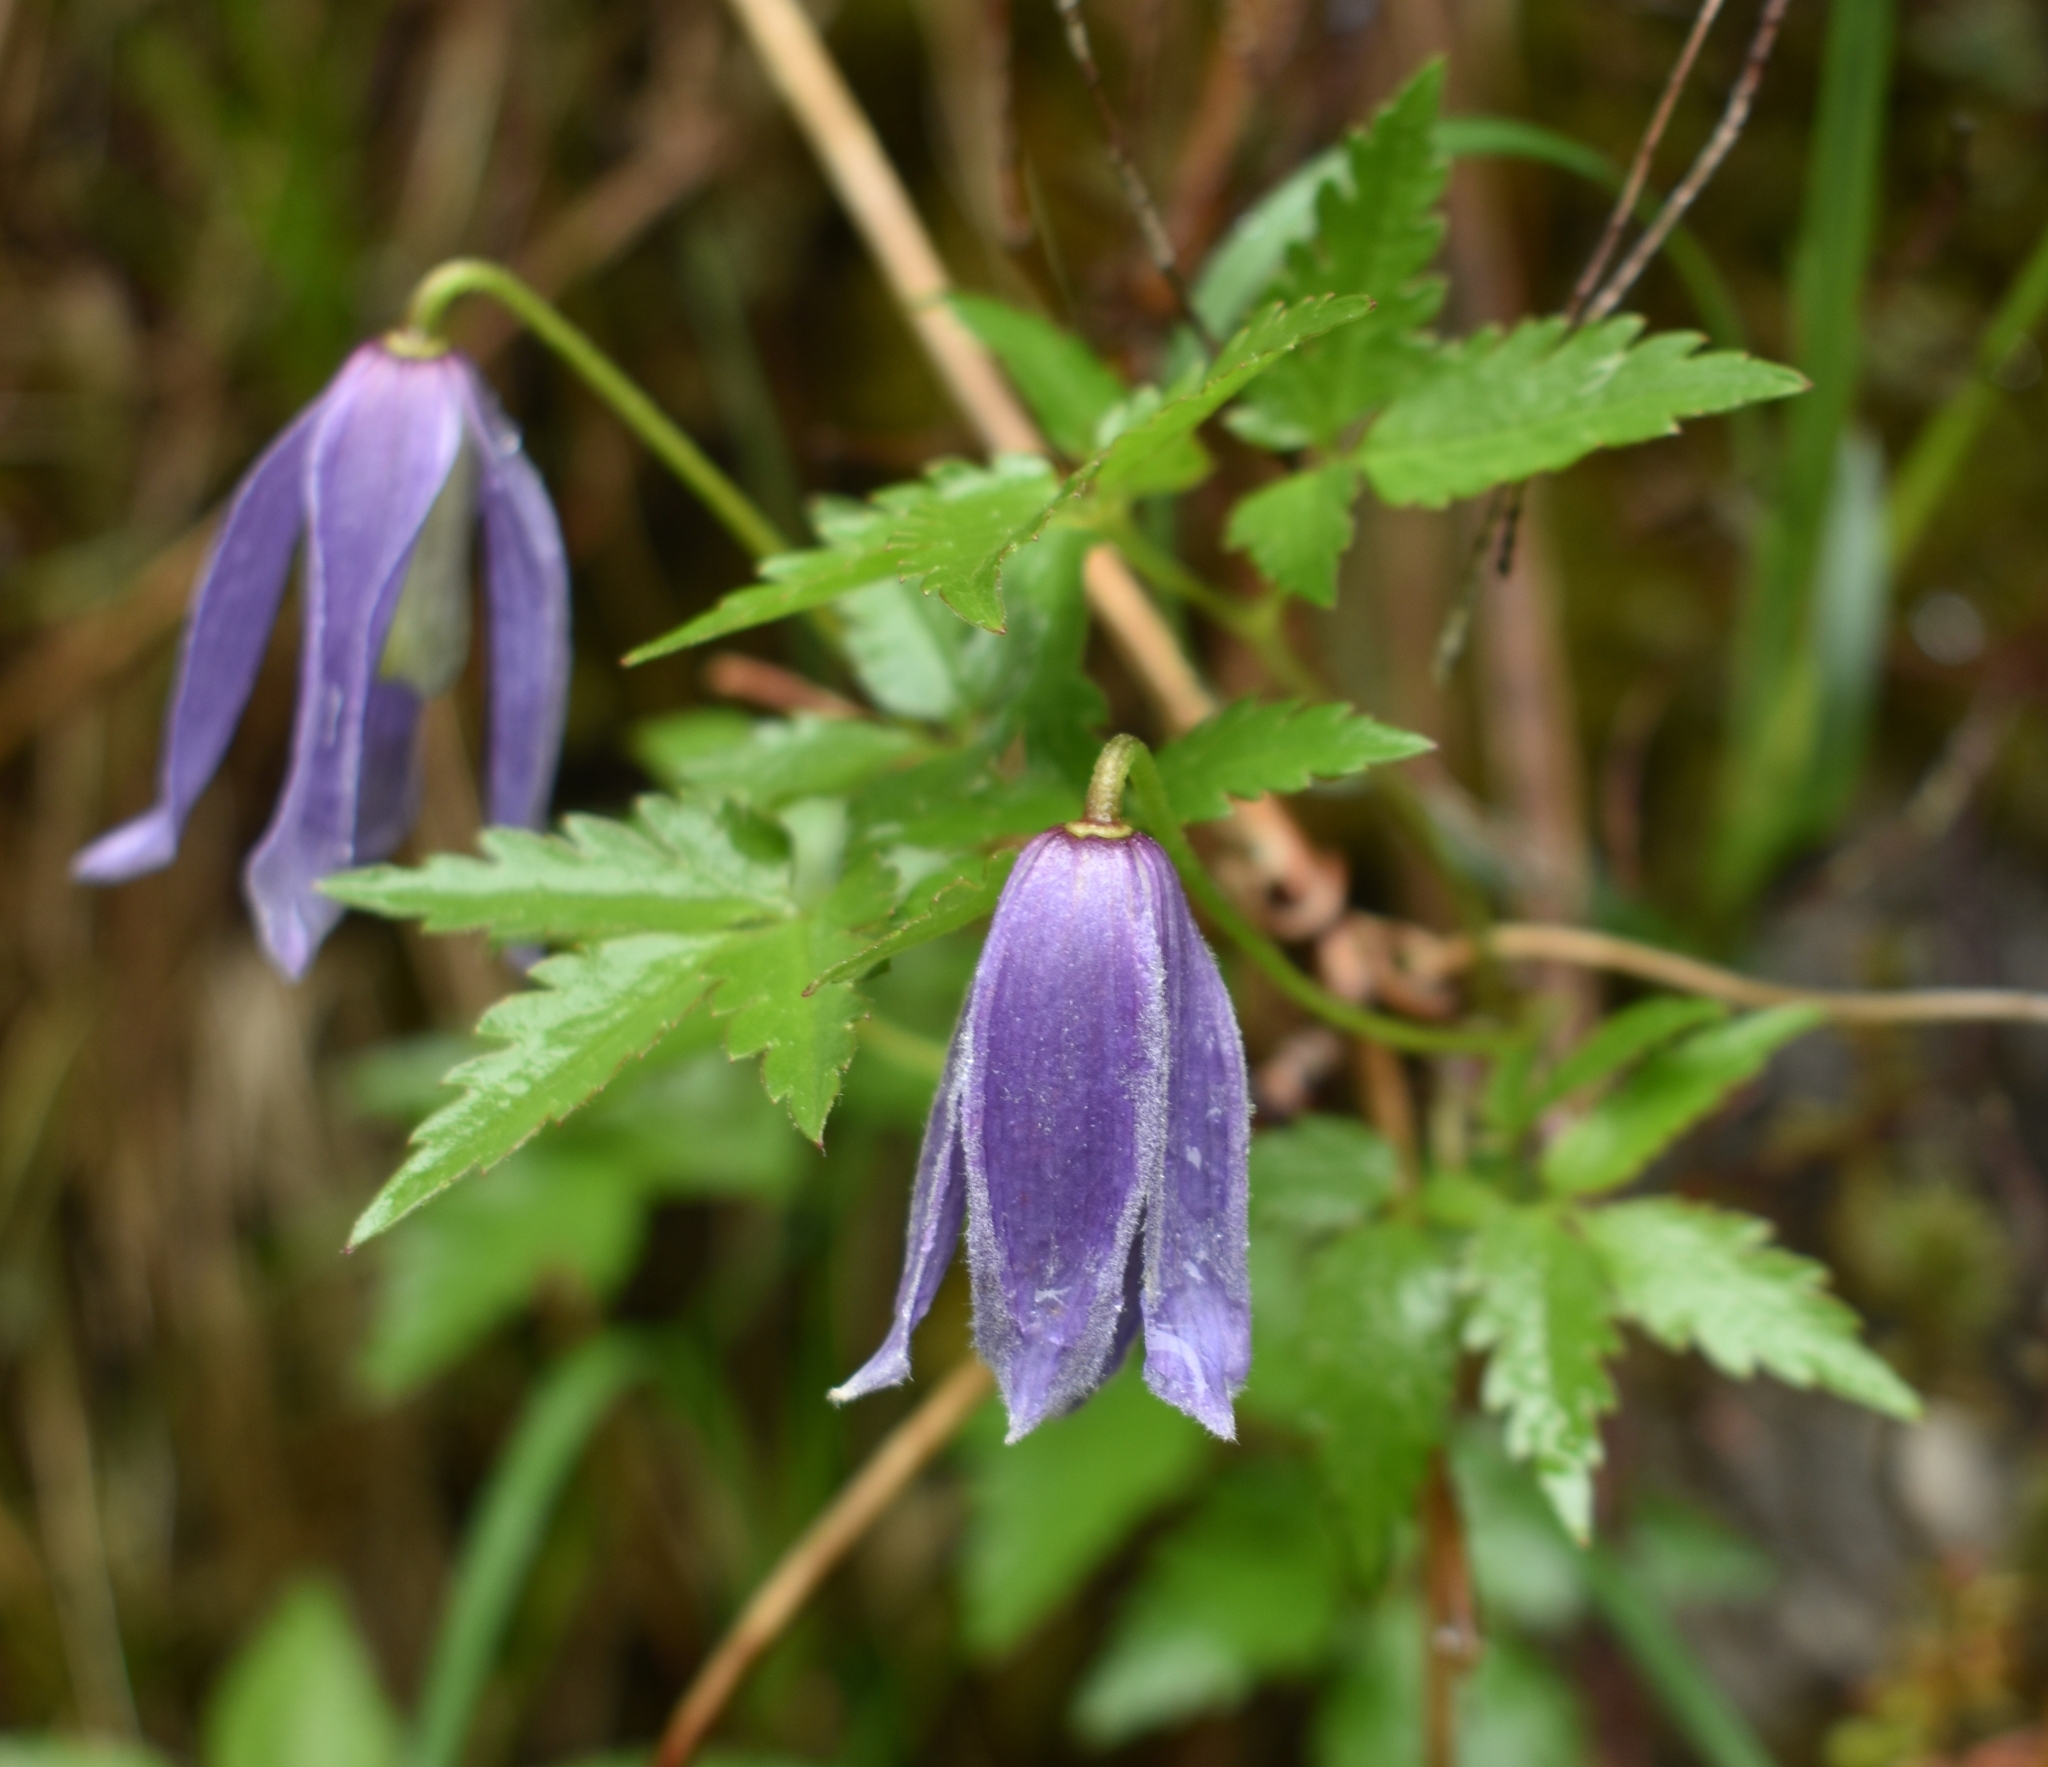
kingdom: Plantae
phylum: Tracheophyta
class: Magnoliopsida
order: Ranunculales
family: Ranunculaceae
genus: Clematis
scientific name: Clematis alpina
